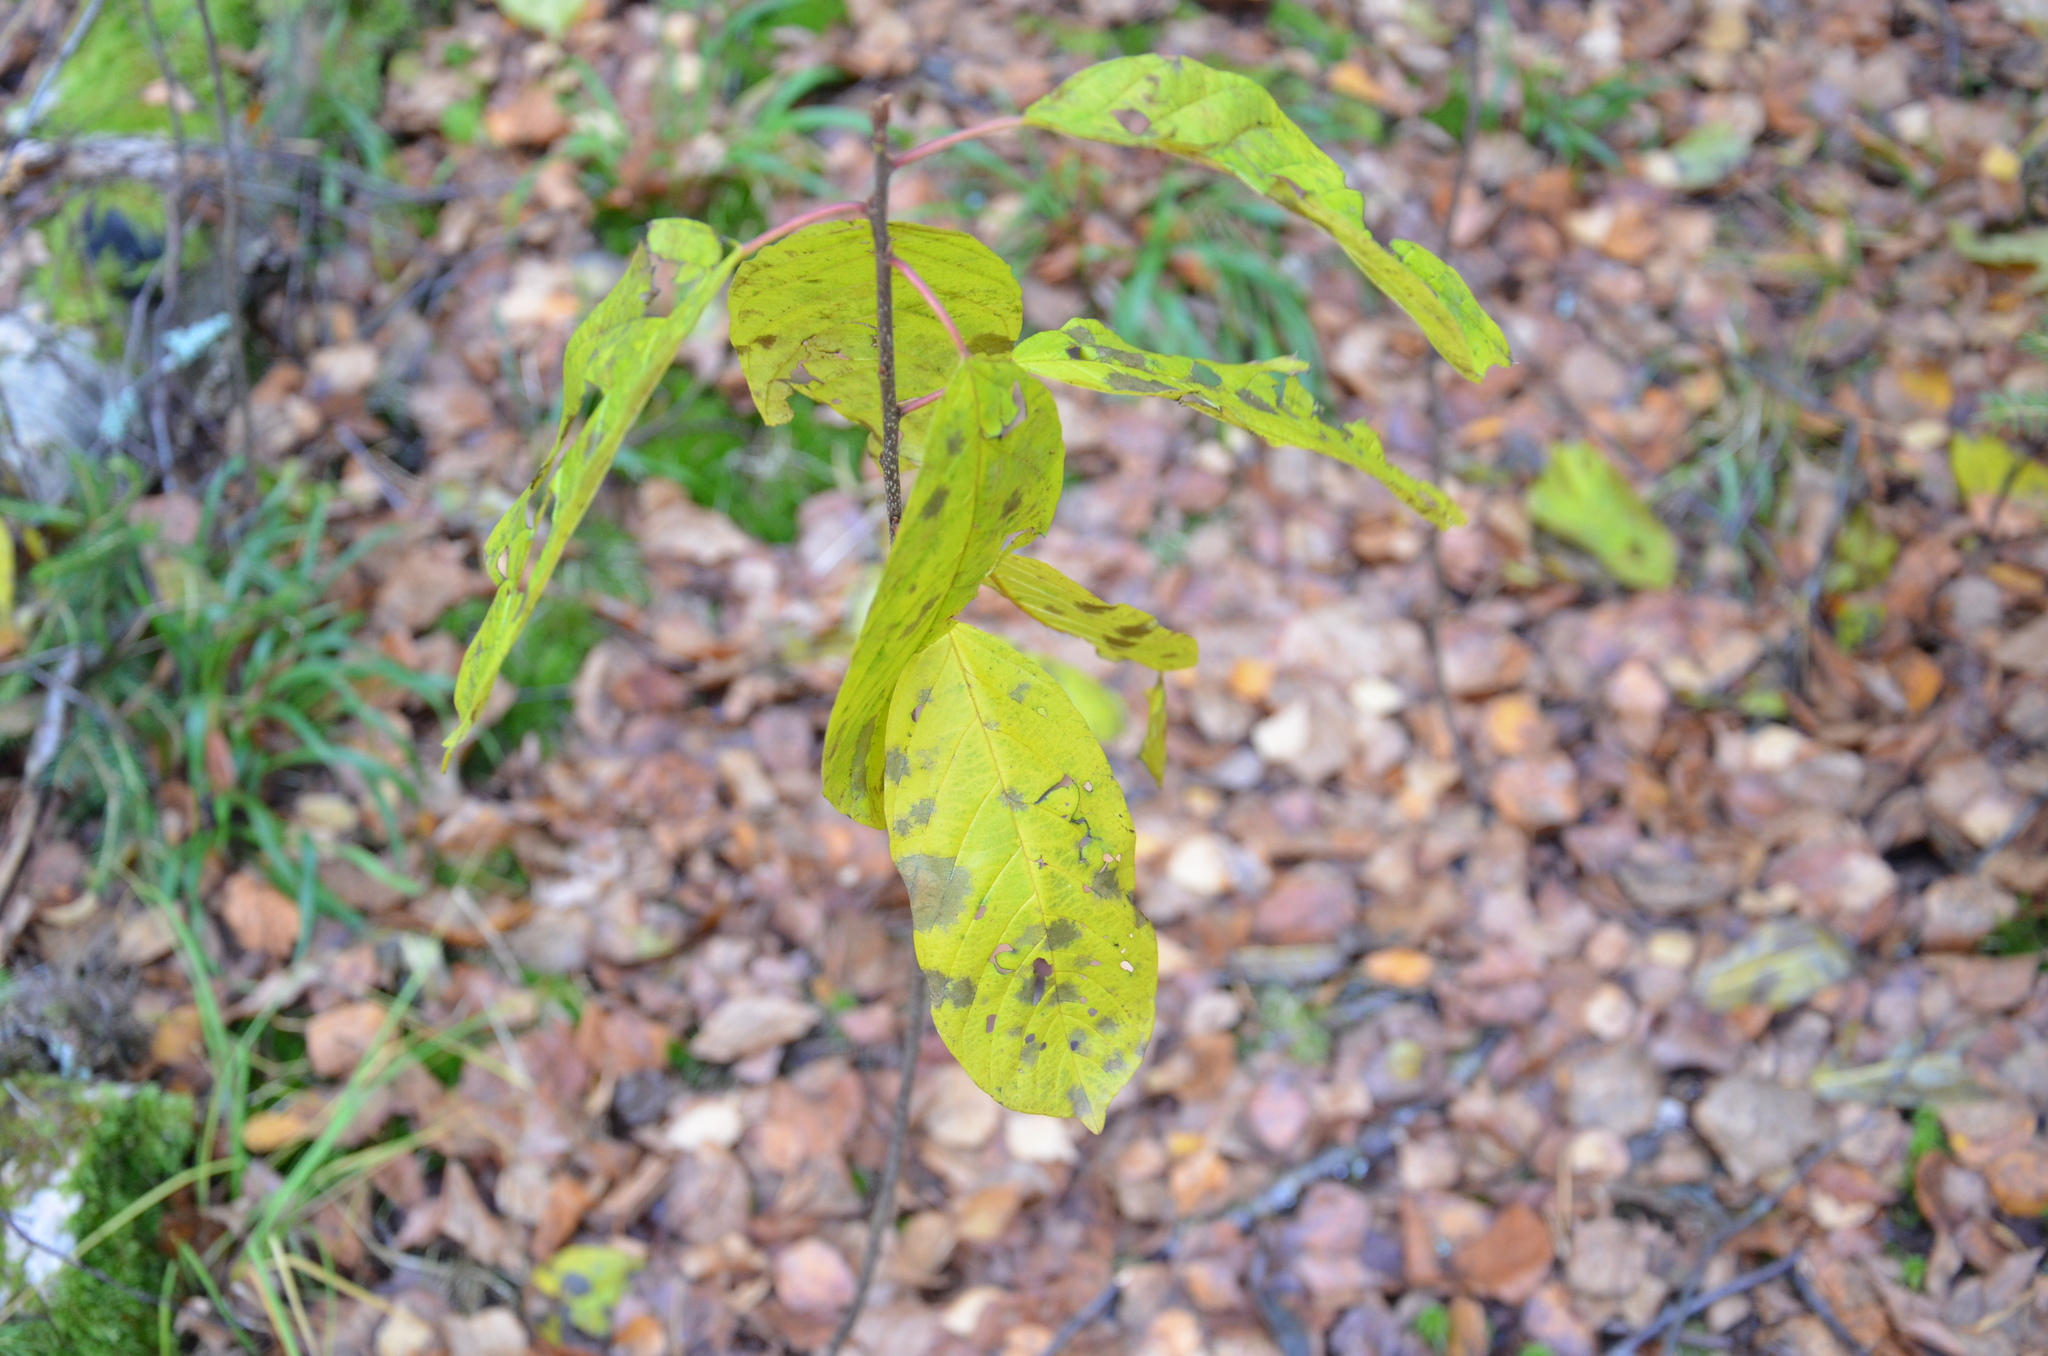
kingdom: Plantae
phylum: Tracheophyta
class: Magnoliopsida
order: Rosales
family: Rhamnaceae
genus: Frangula
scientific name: Frangula alnus
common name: Alder buckthorn
